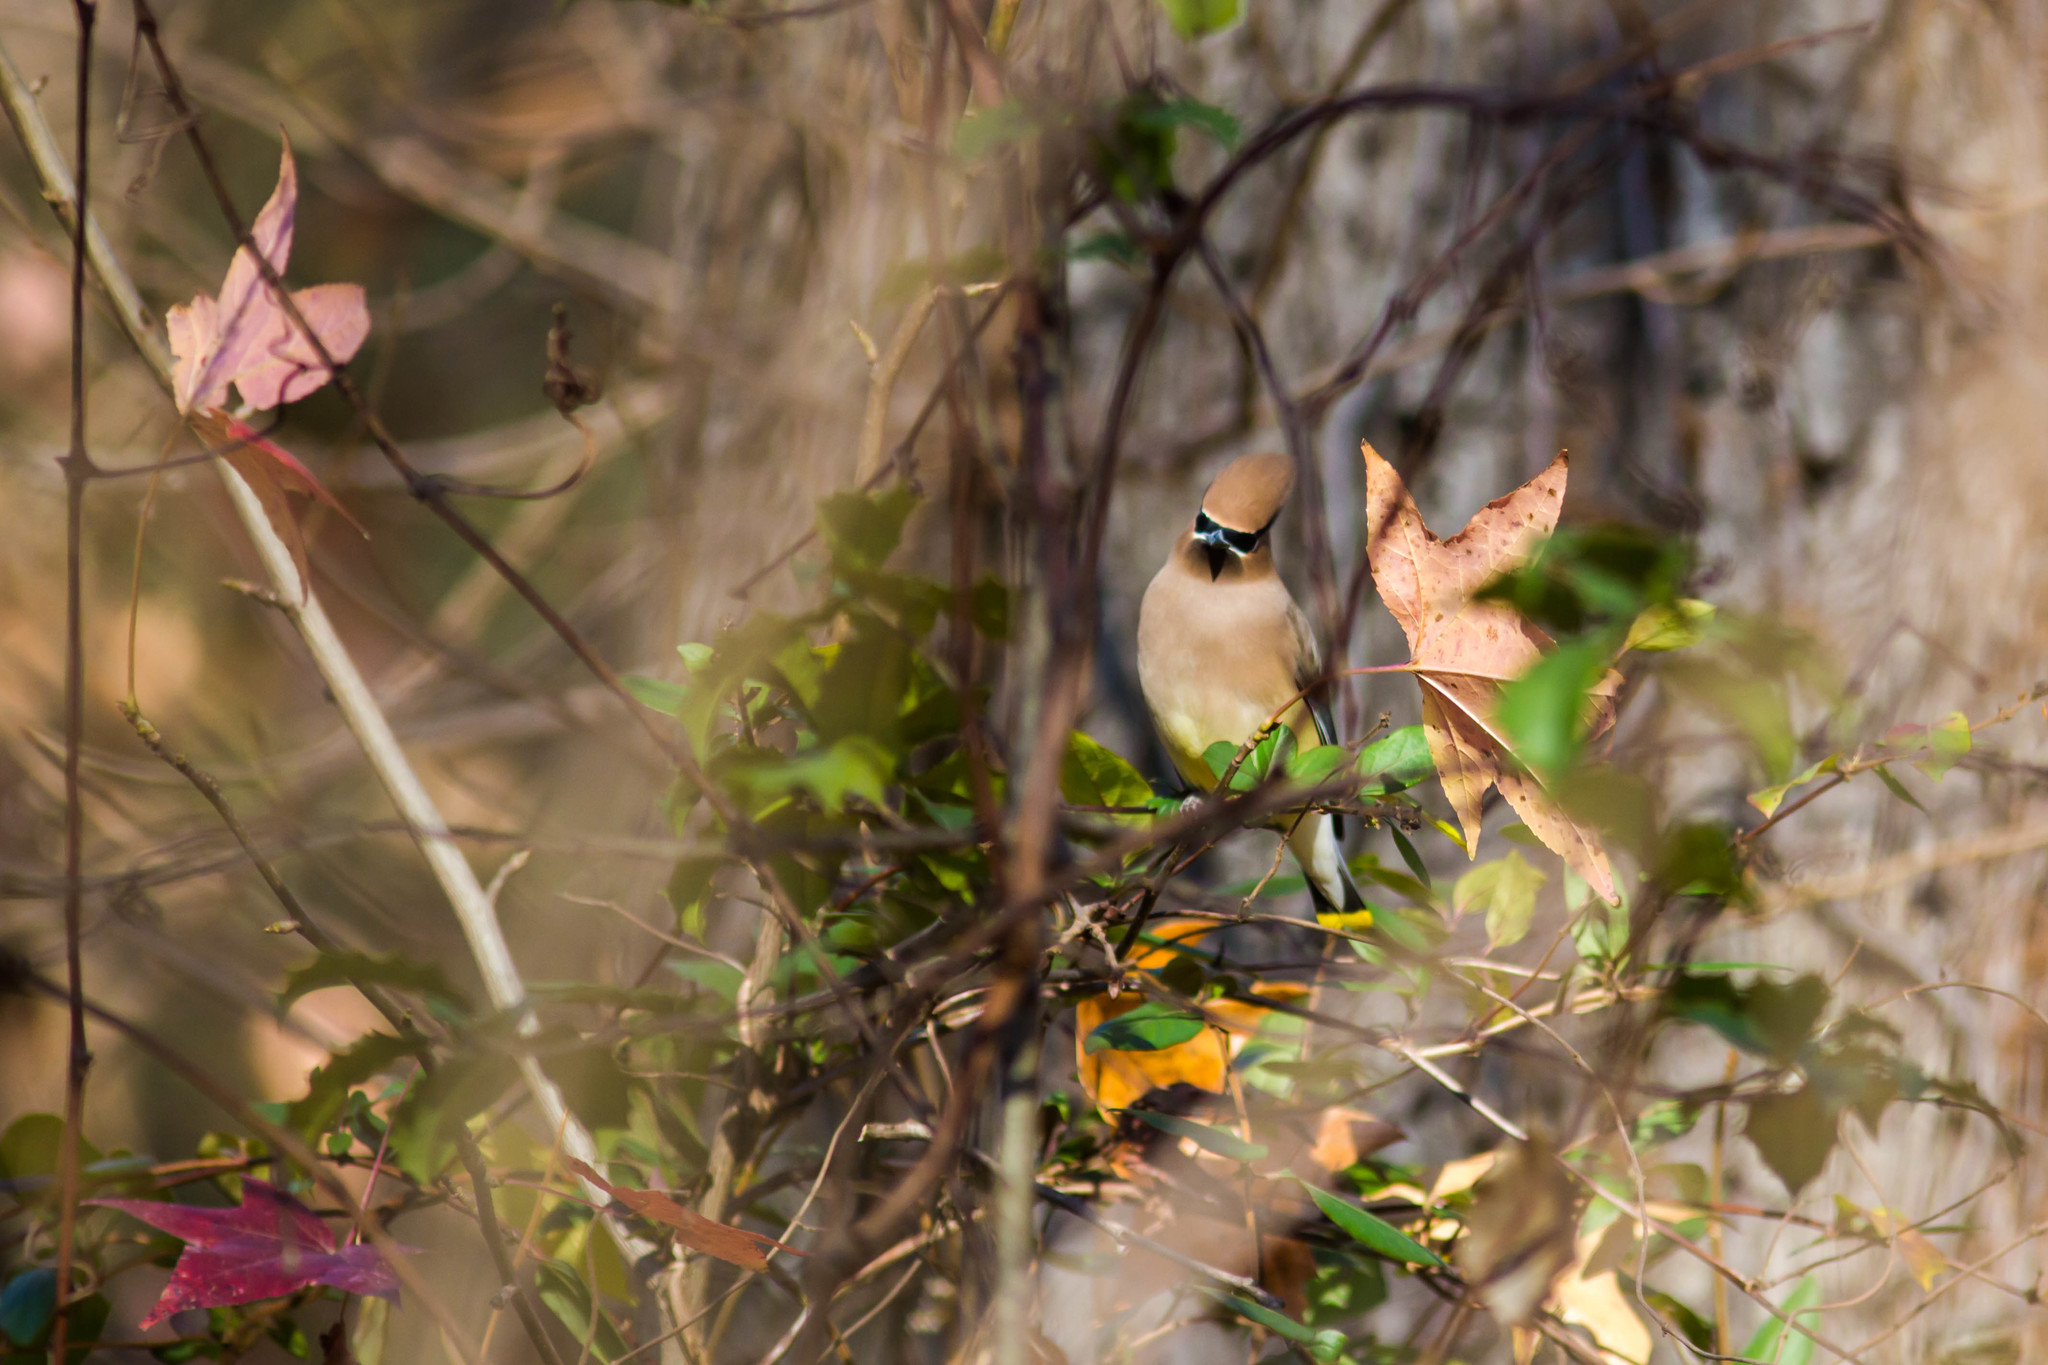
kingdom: Animalia
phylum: Chordata
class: Aves
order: Passeriformes
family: Bombycillidae
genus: Bombycilla
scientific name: Bombycilla cedrorum
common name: Cedar waxwing
